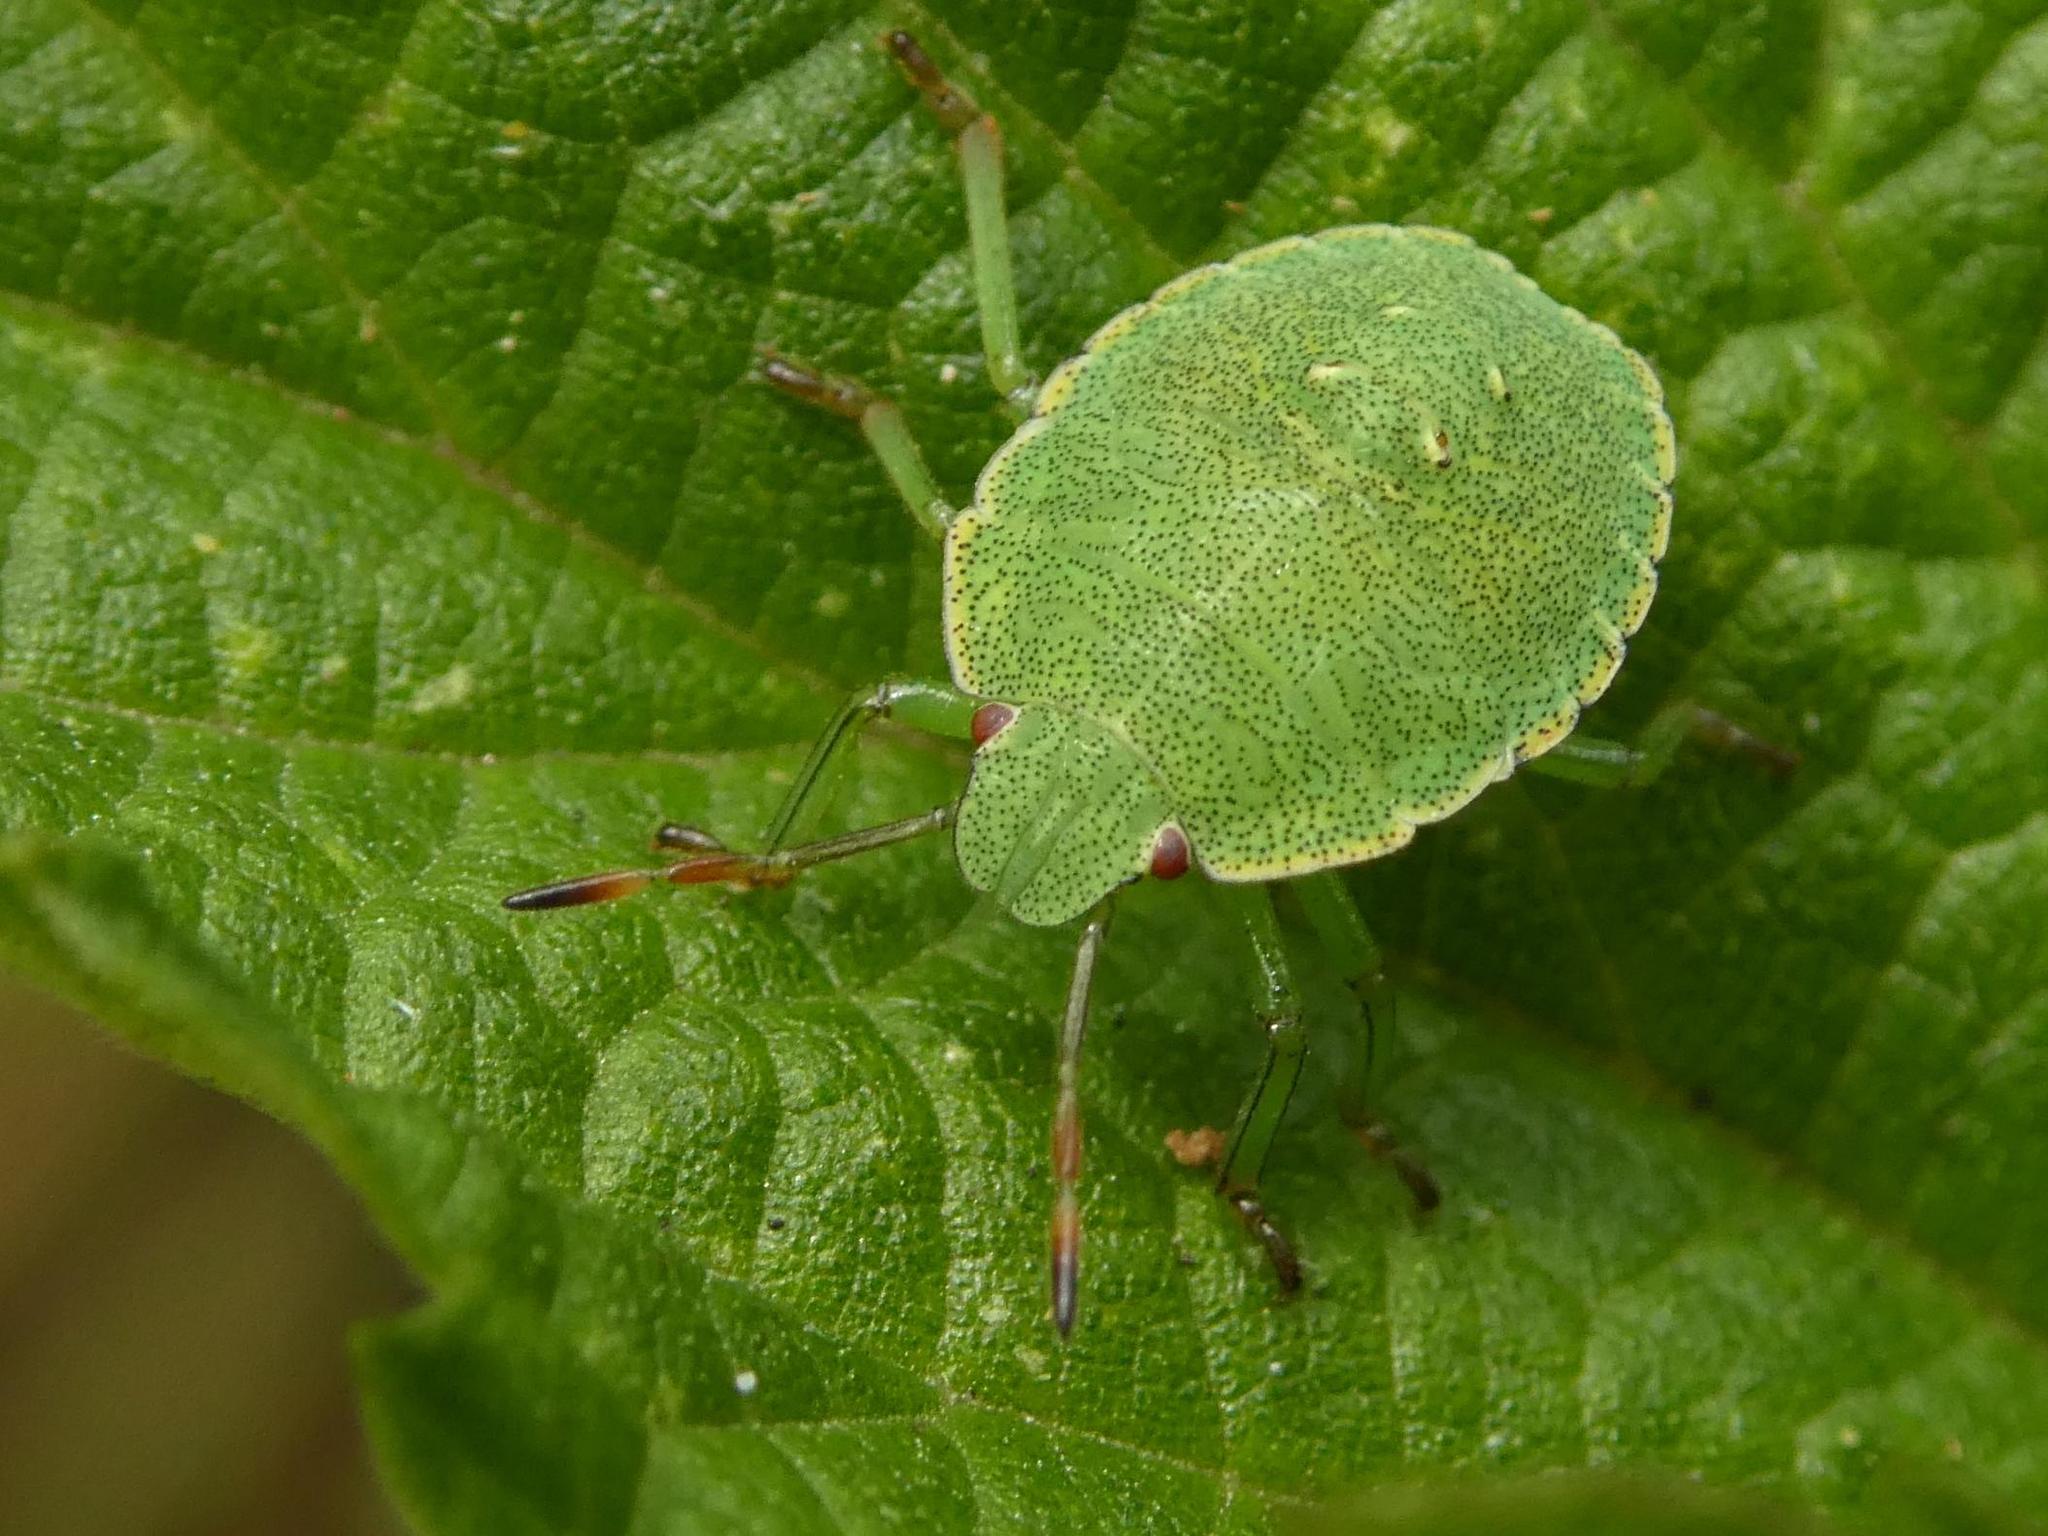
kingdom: Animalia
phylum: Arthropoda
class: Insecta
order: Hemiptera
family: Pentatomidae
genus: Palomena
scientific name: Palomena prasina
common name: Green shieldbug
